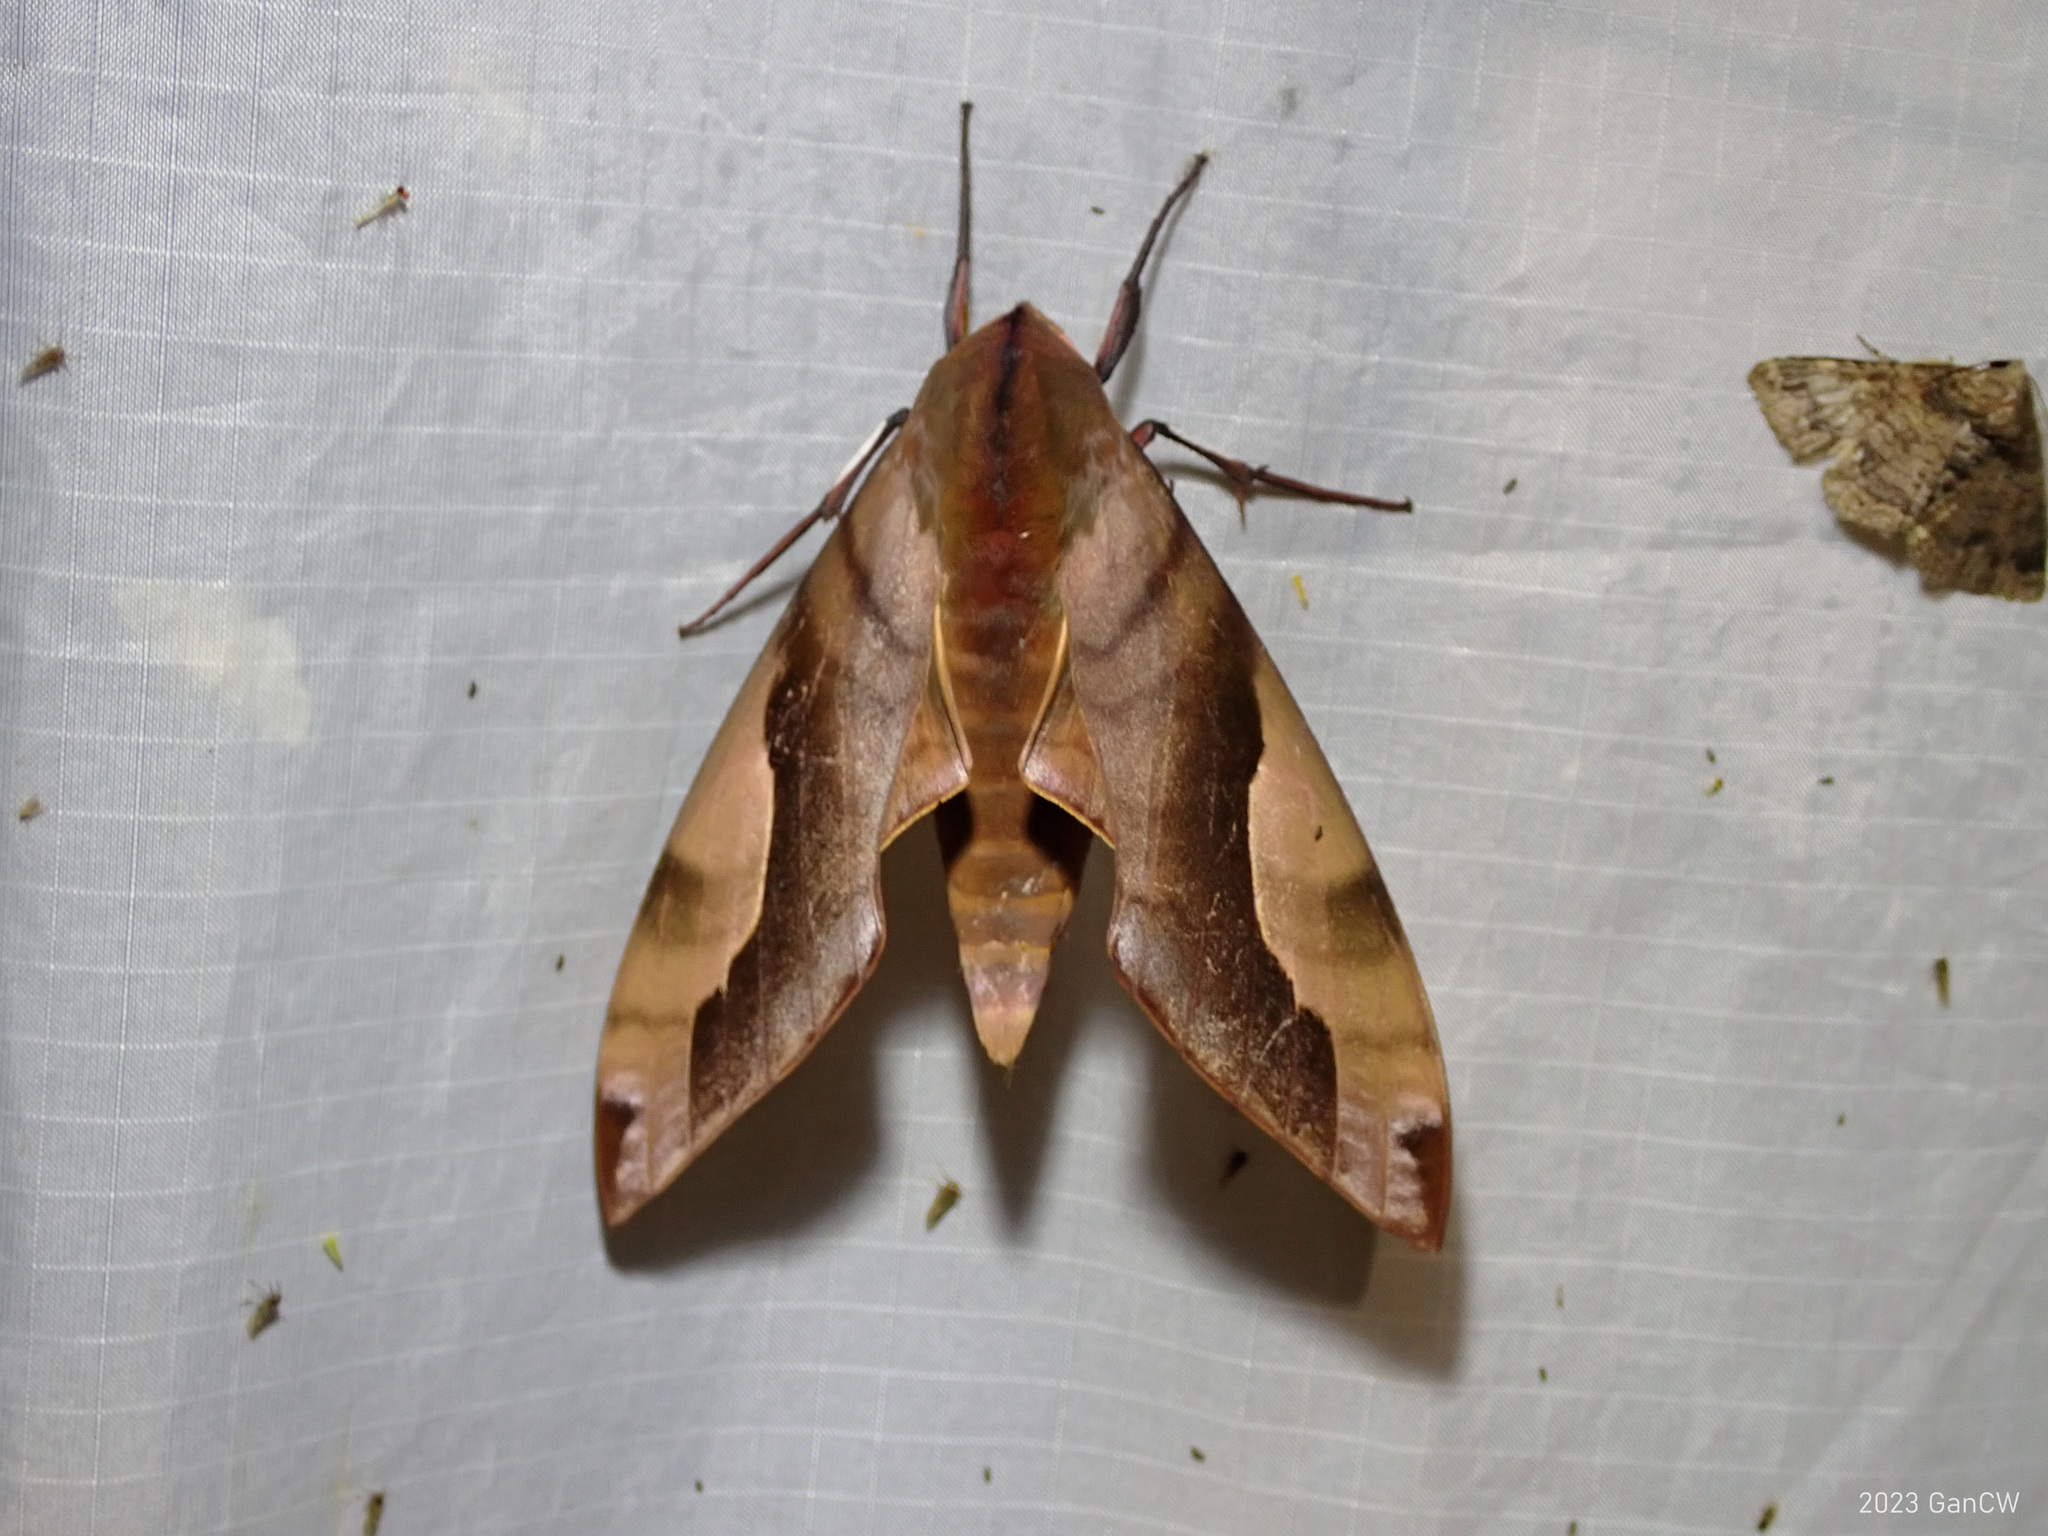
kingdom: Animalia
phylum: Arthropoda
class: Insecta
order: Lepidoptera
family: Sphingidae
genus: Clanis
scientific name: Clanis titan
